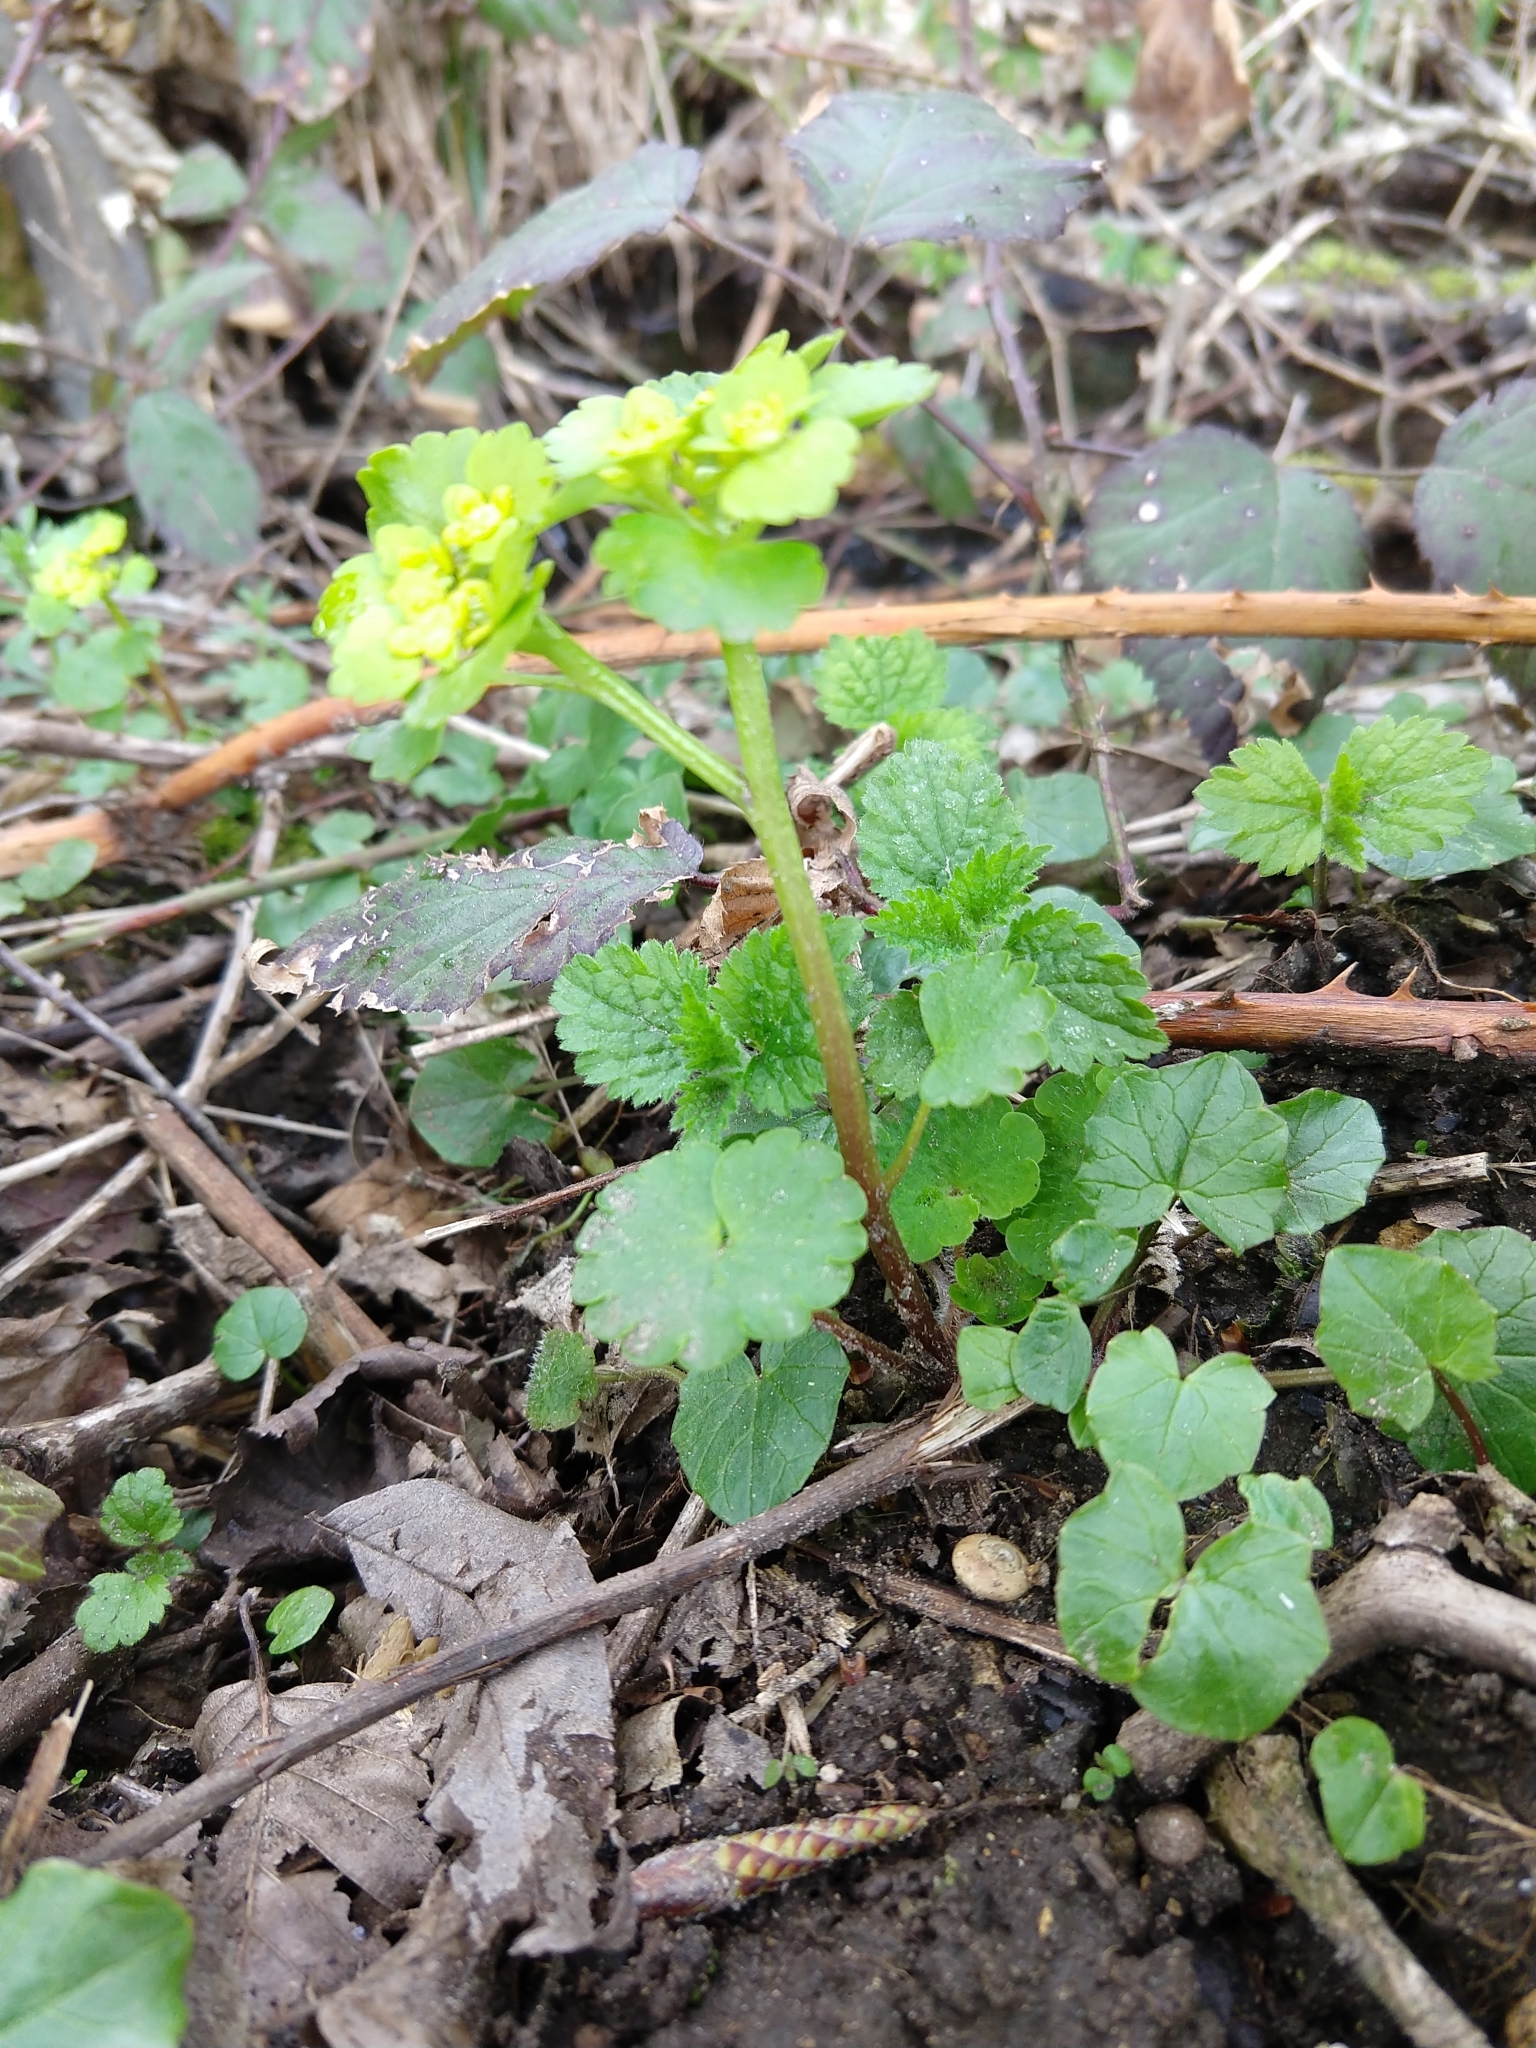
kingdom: Plantae
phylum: Tracheophyta
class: Magnoliopsida
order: Saxifragales
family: Saxifragaceae
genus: Chrysosplenium
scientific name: Chrysosplenium alternifolium
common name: Alternate-leaved golden-saxifrage
